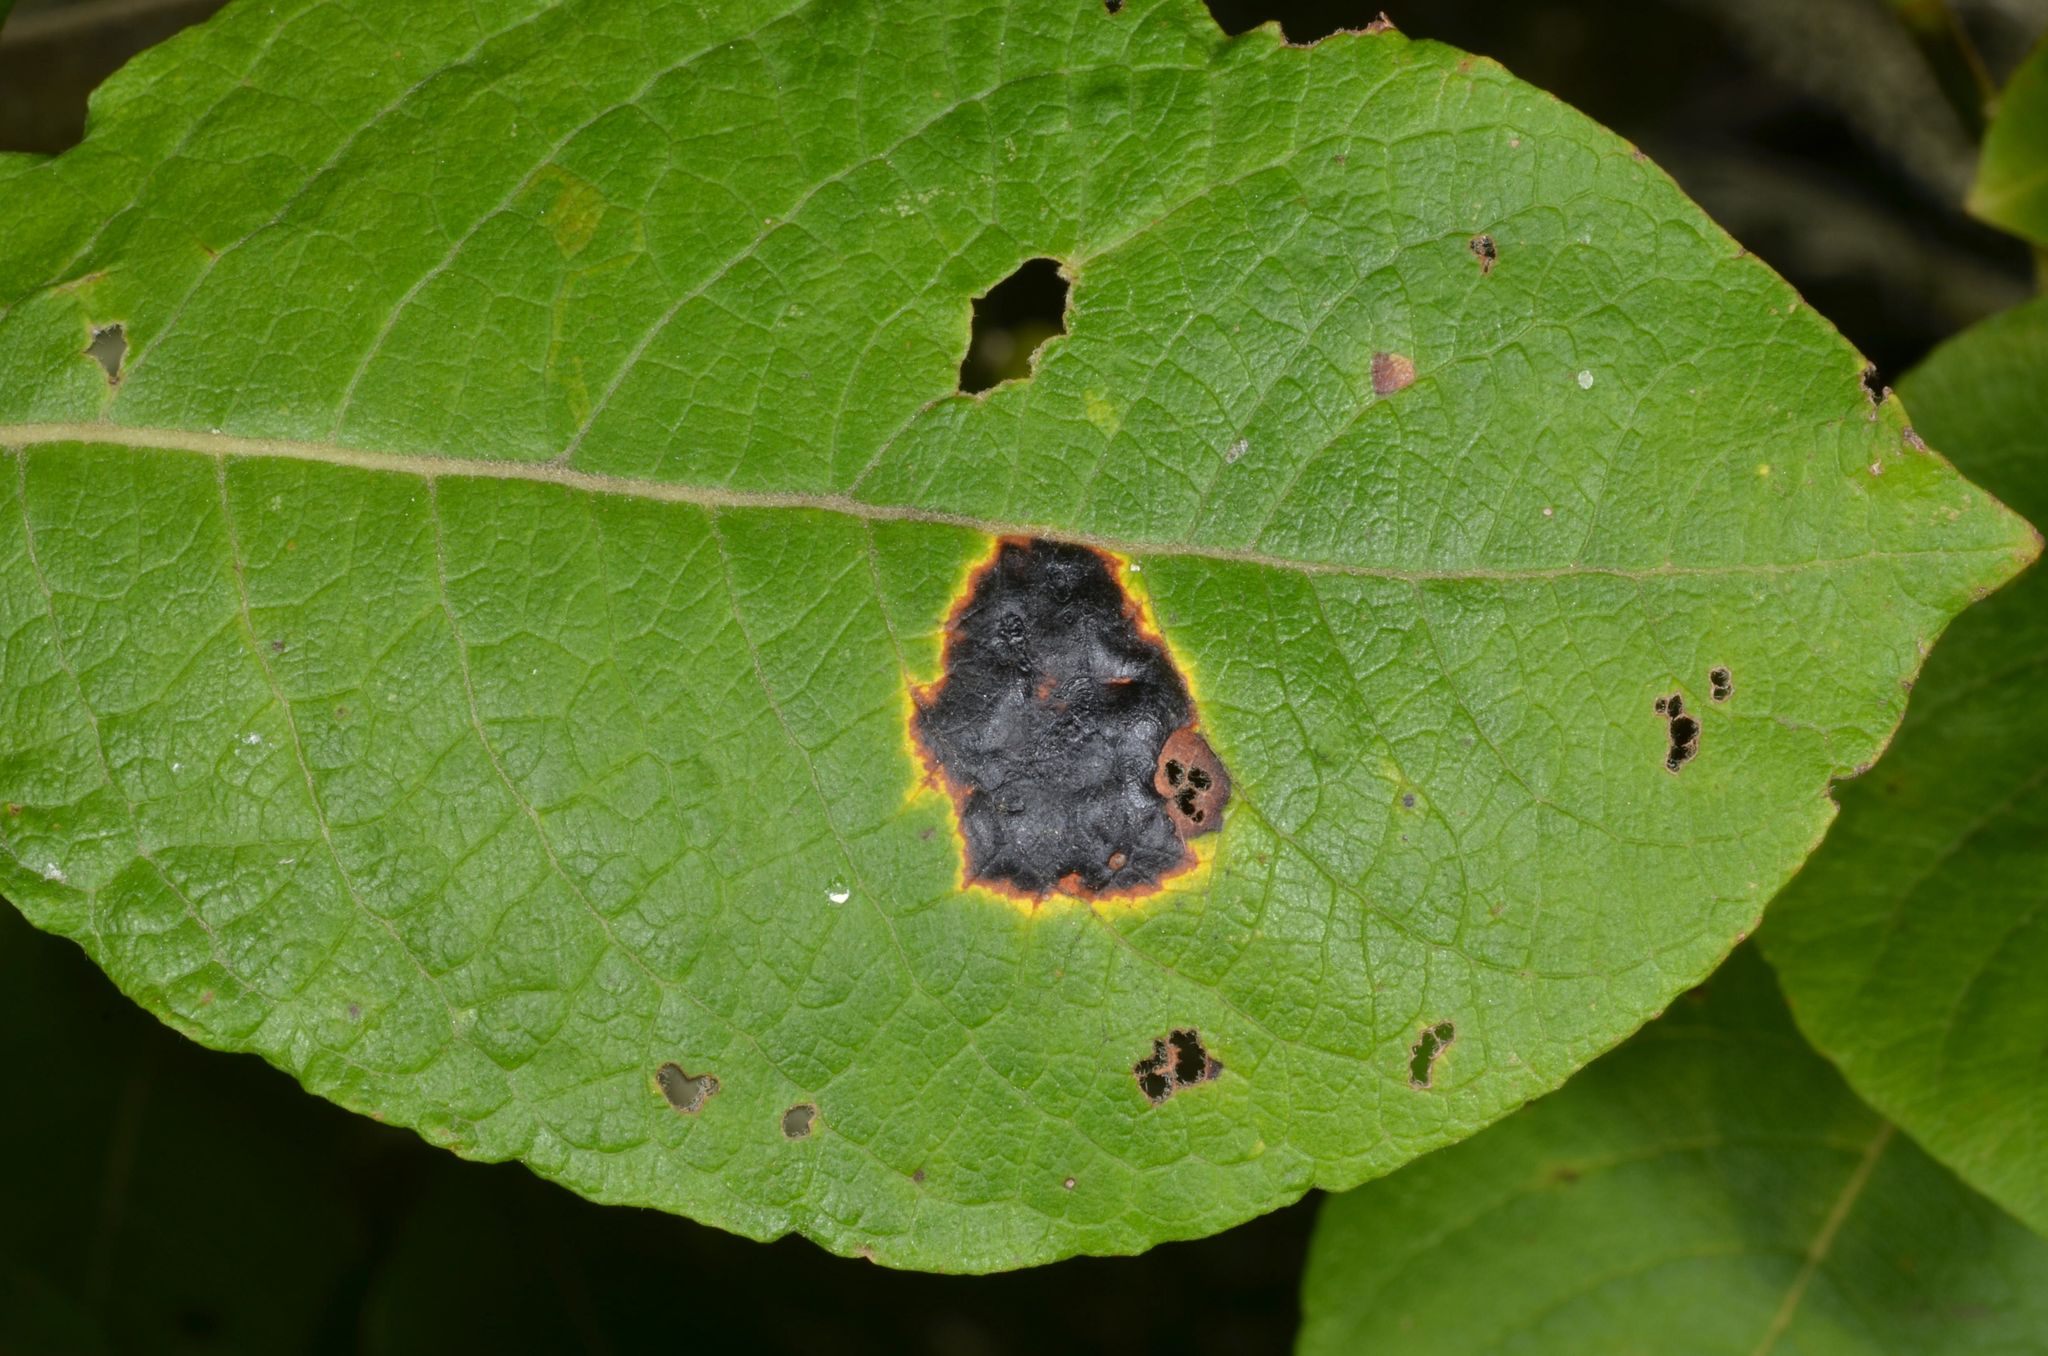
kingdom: Fungi
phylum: Ascomycota
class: Leotiomycetes
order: Rhytismatales
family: Rhytismataceae
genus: Rhytisma
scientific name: Rhytisma salicinum
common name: Willow tarspot
